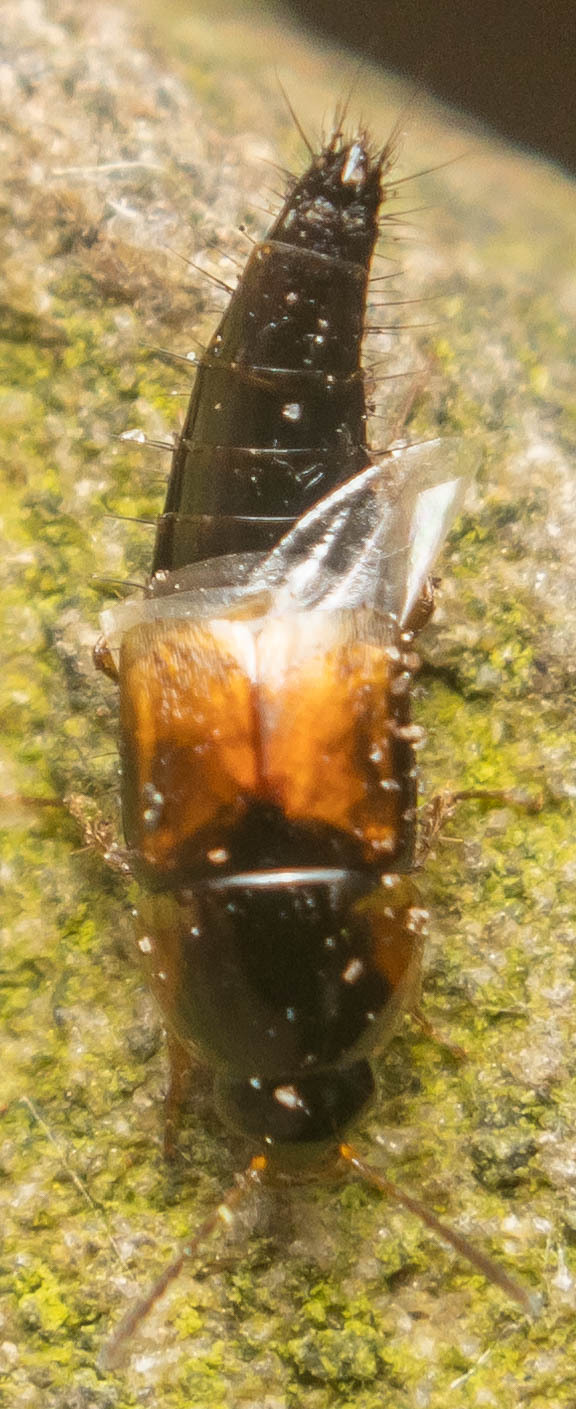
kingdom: Animalia
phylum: Arthropoda
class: Insecta
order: Coleoptera
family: Staphylinidae
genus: Tachyporus
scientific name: Tachyporus hypnorum
